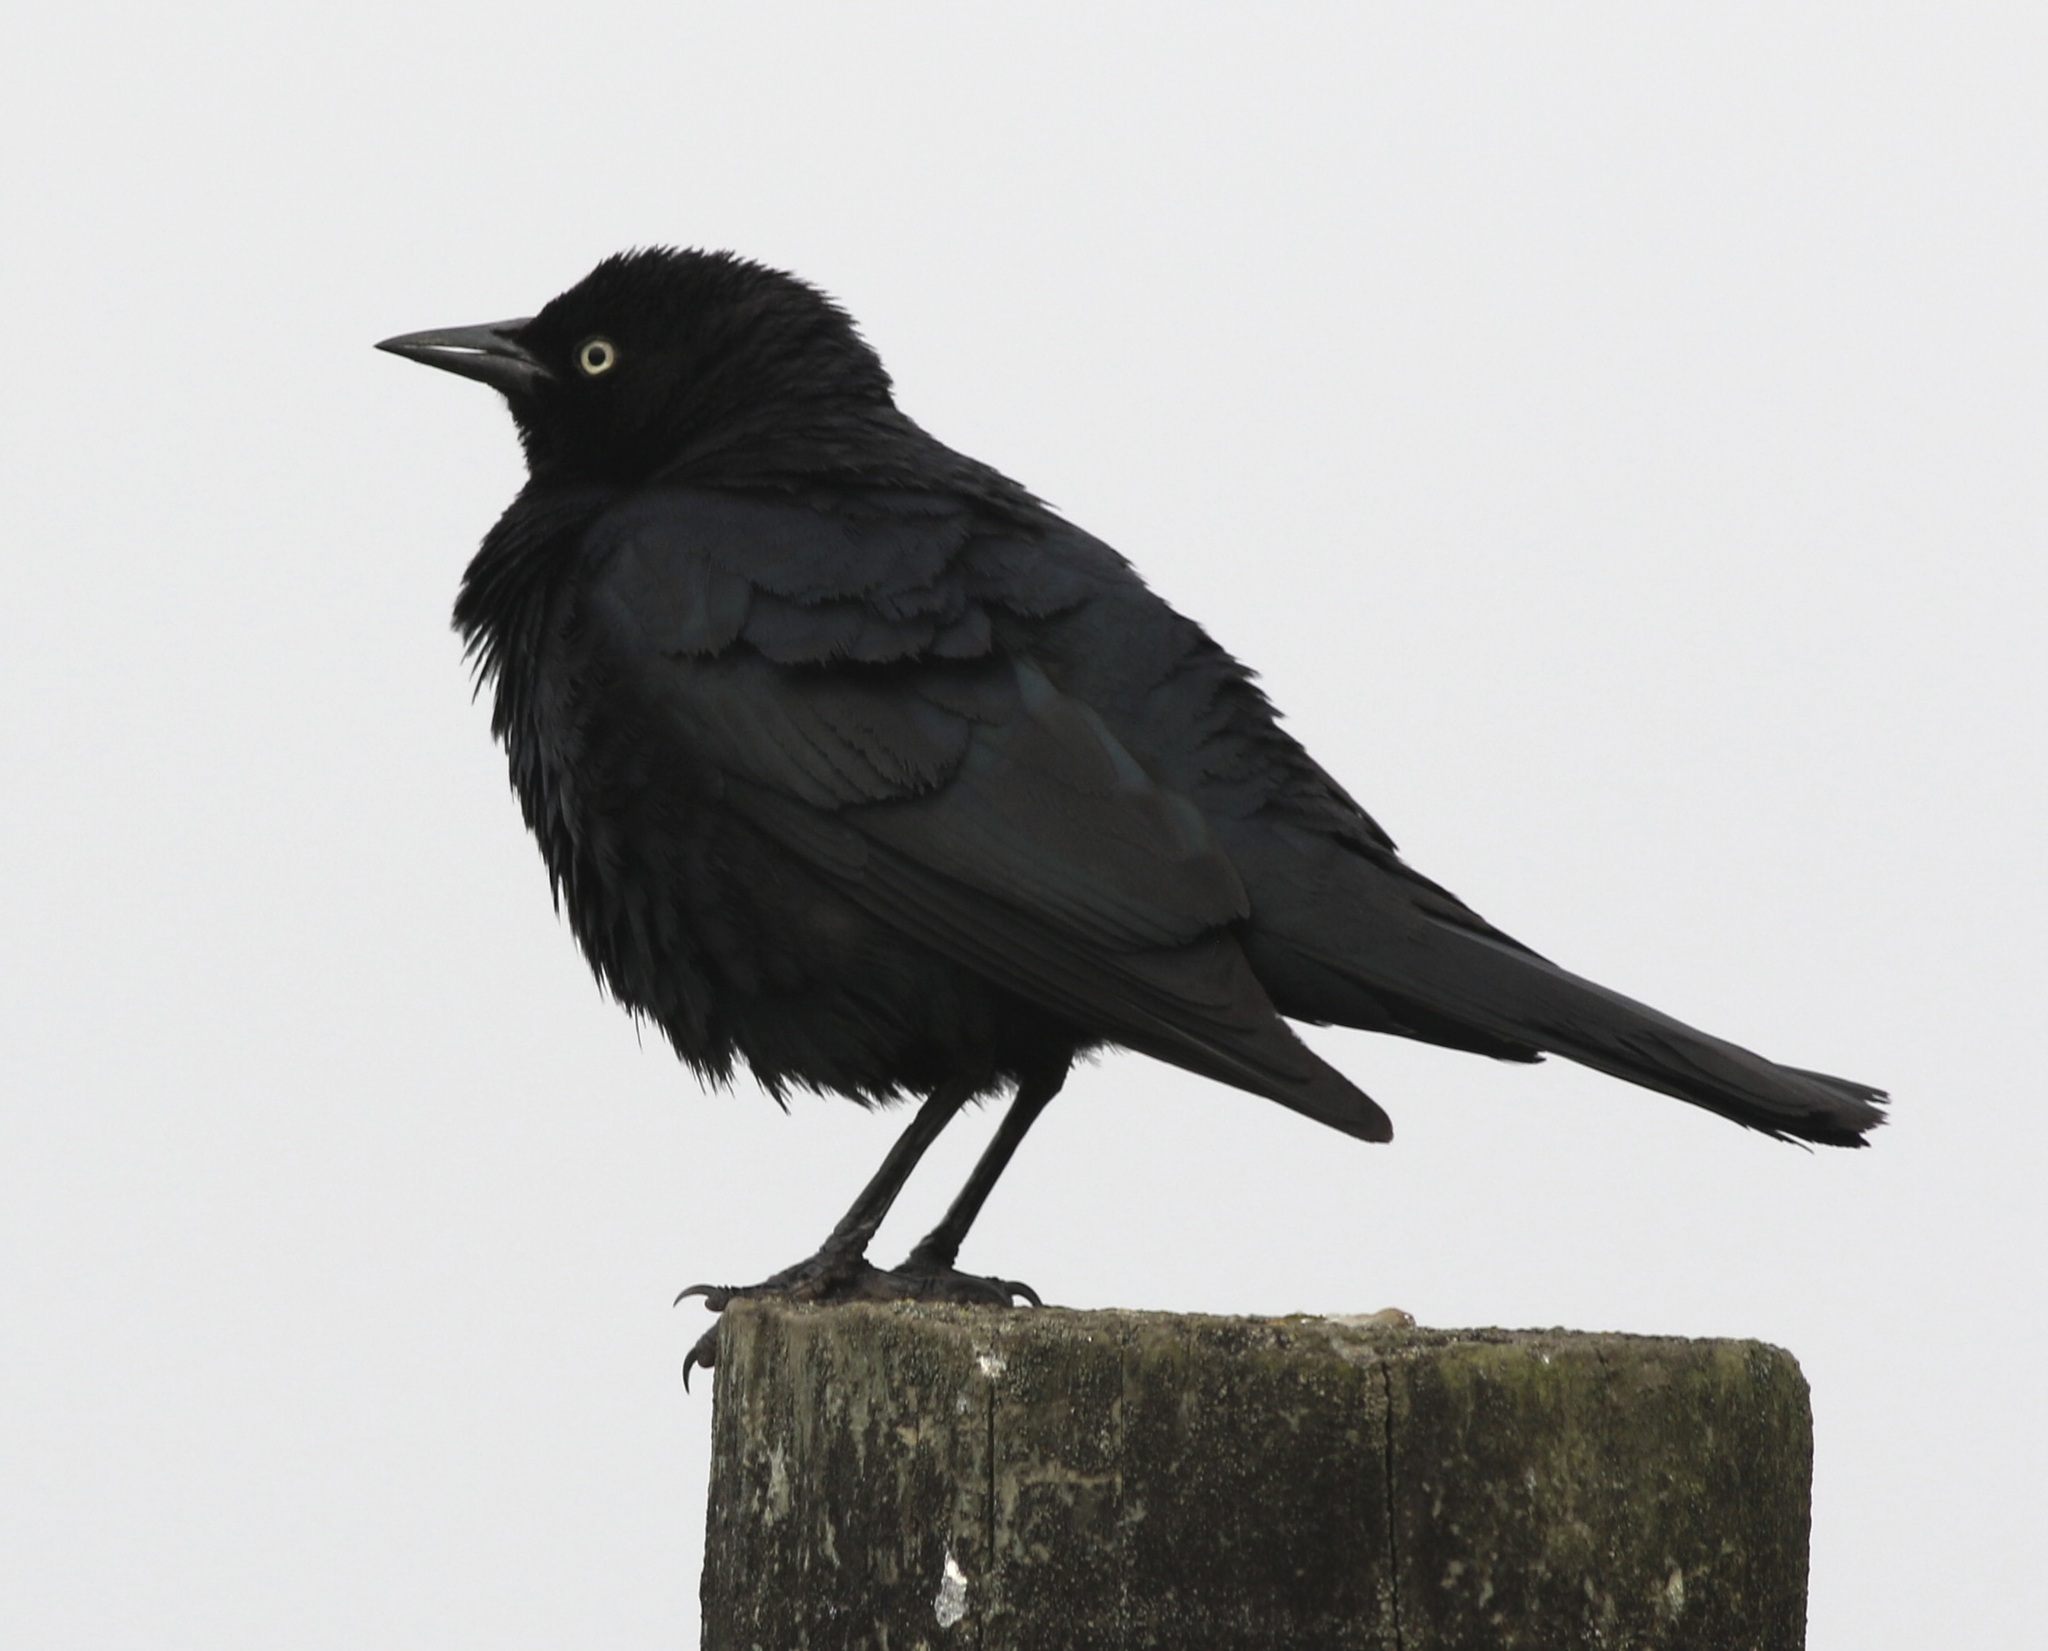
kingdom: Animalia
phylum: Chordata
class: Aves
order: Passeriformes
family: Icteridae
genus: Euphagus
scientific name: Euphagus cyanocephalus
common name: Brewer's blackbird
